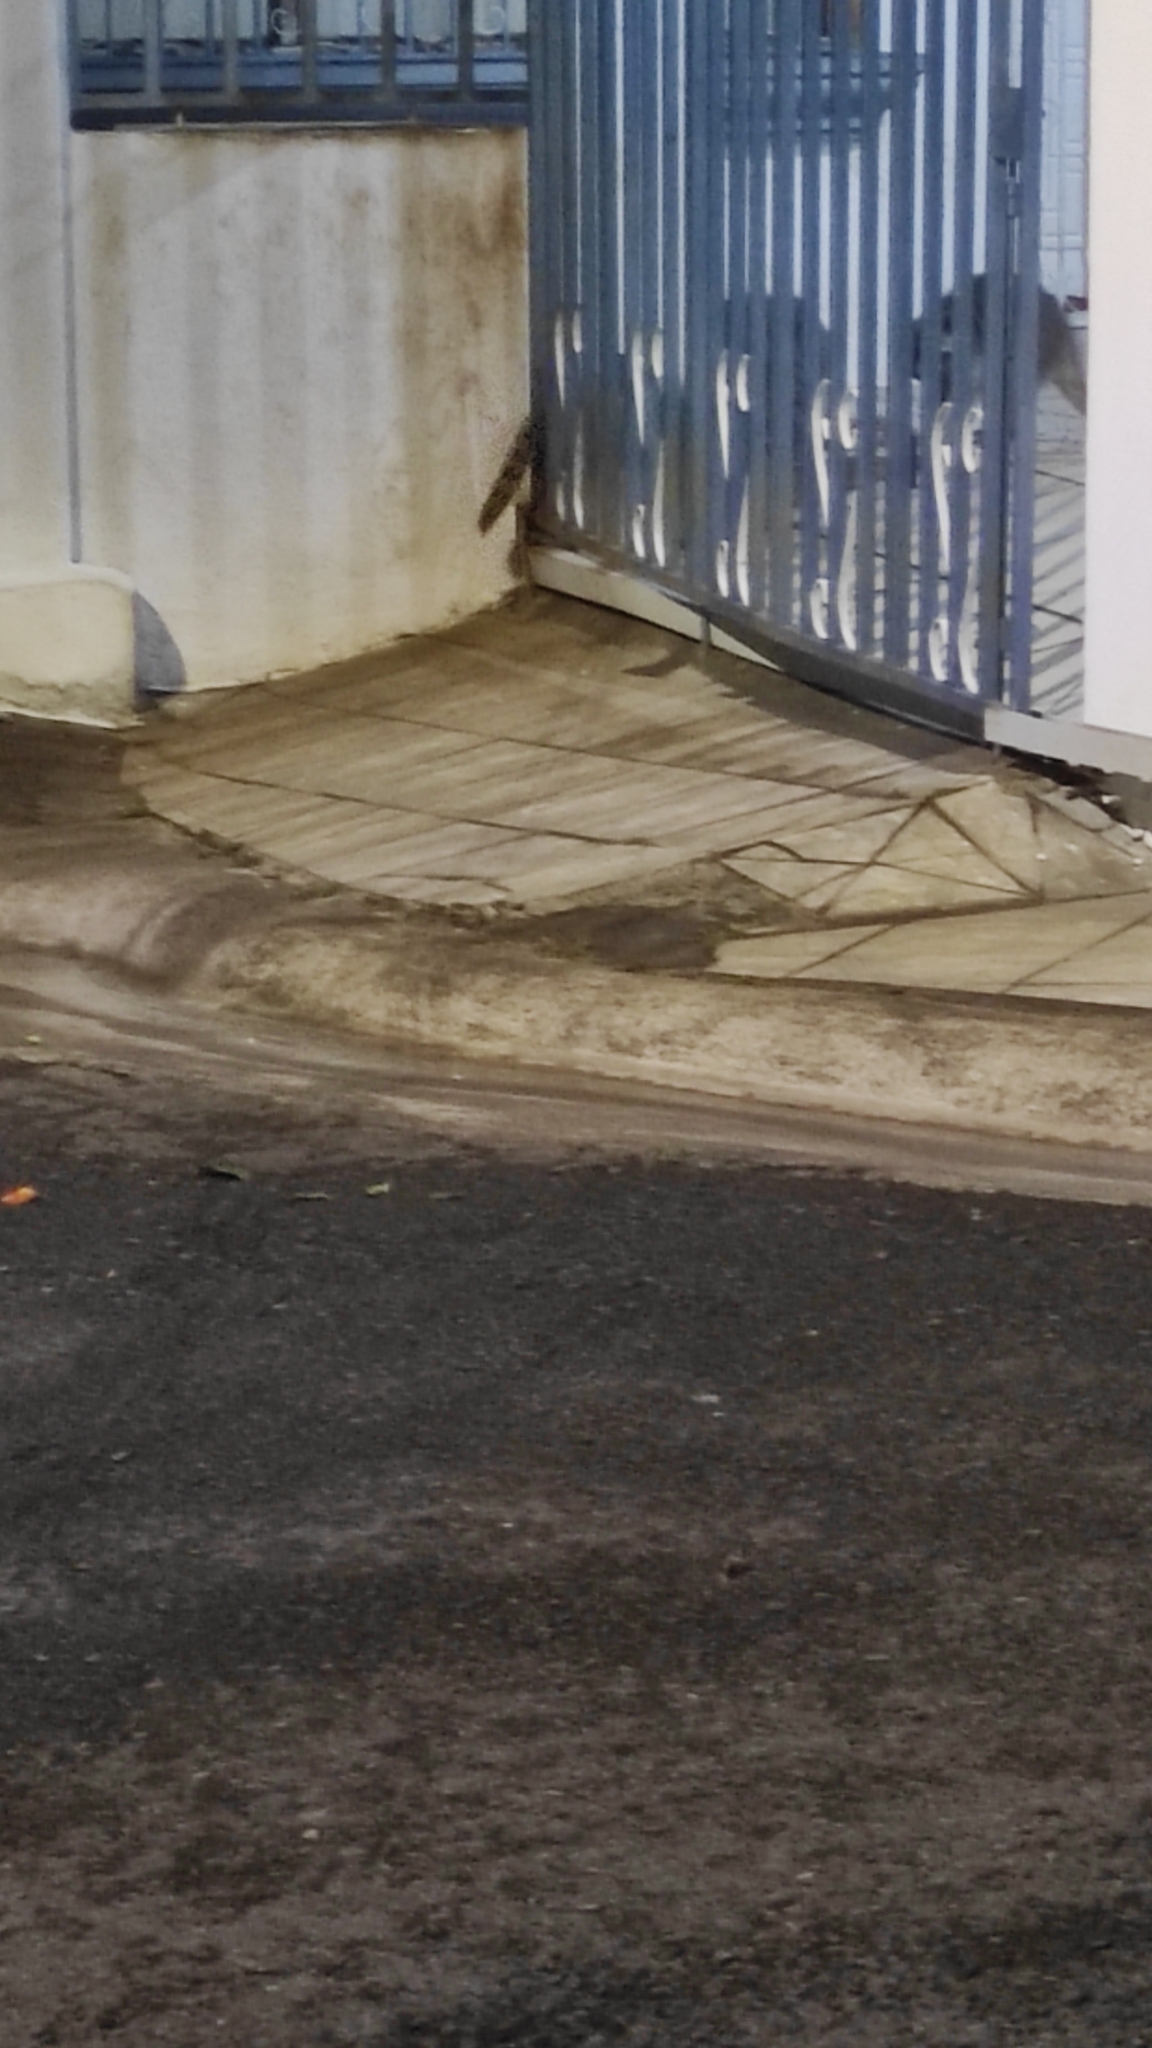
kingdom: Animalia
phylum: Chordata
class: Mammalia
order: Carnivora
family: Procyonidae
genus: Procyon
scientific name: Procyon lotor
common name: Raccoon
